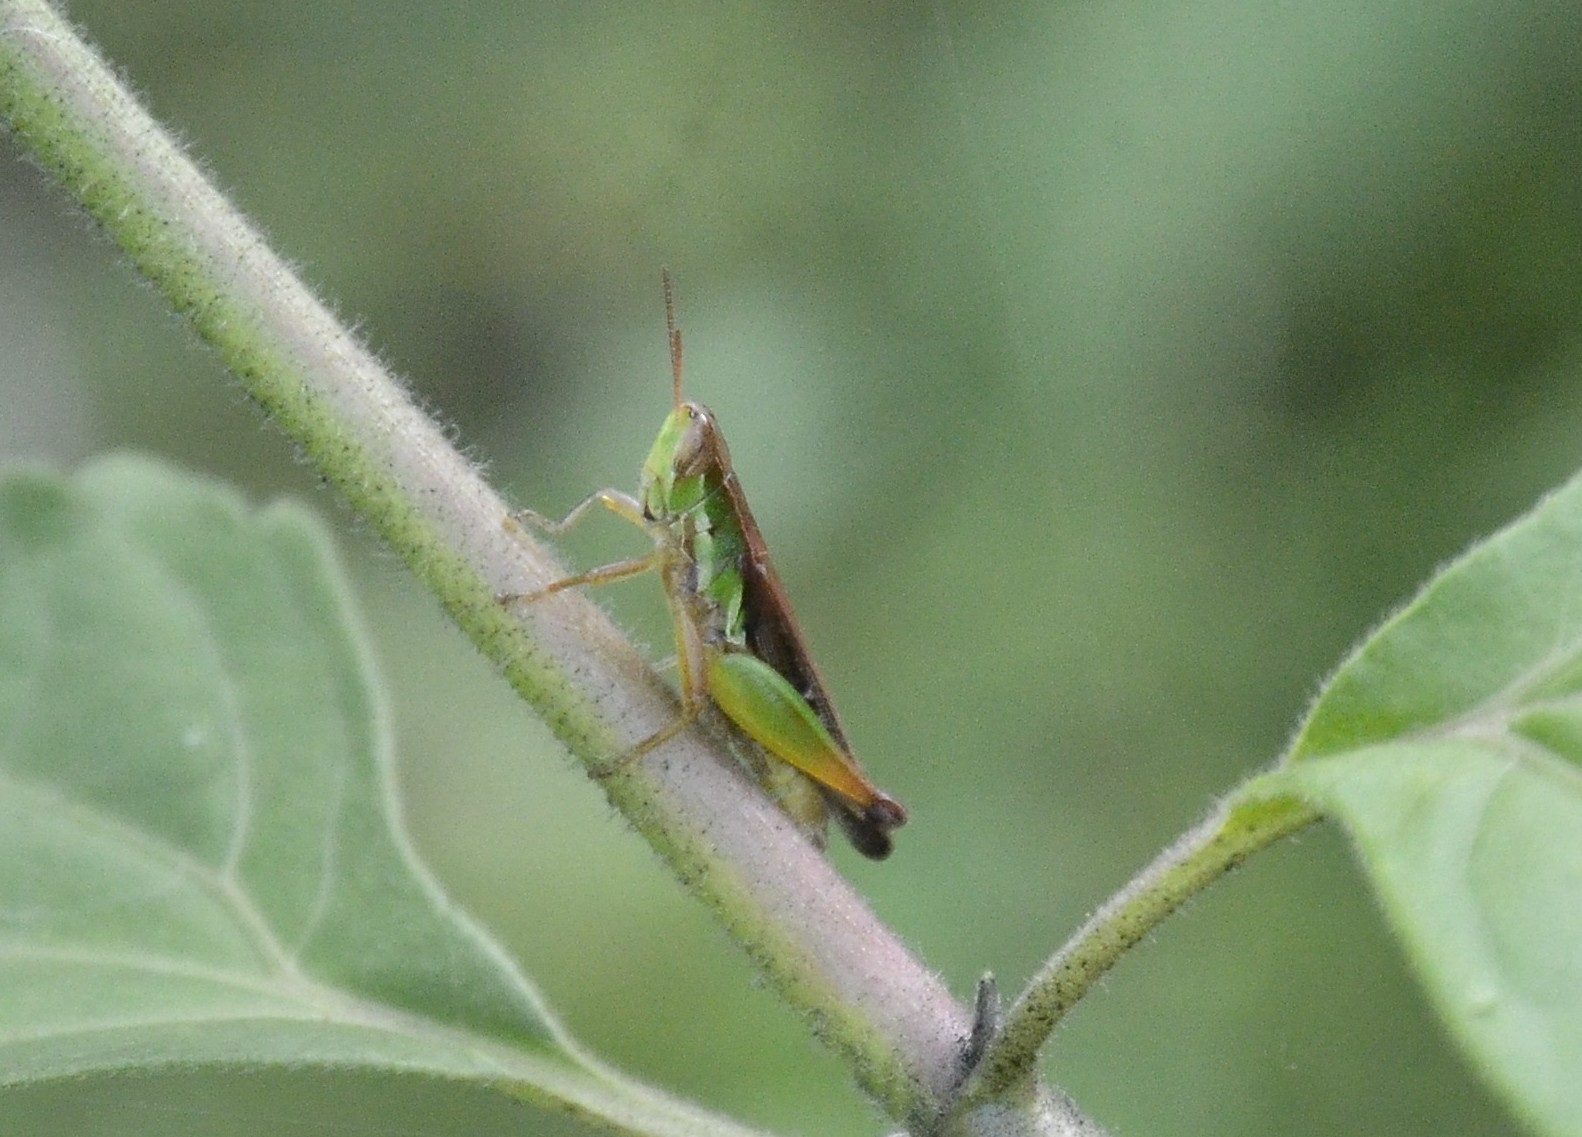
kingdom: Animalia
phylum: Arthropoda
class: Insecta
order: Orthoptera
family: Acrididae
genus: Spathosternum
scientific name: Spathosternum prasiniferum
